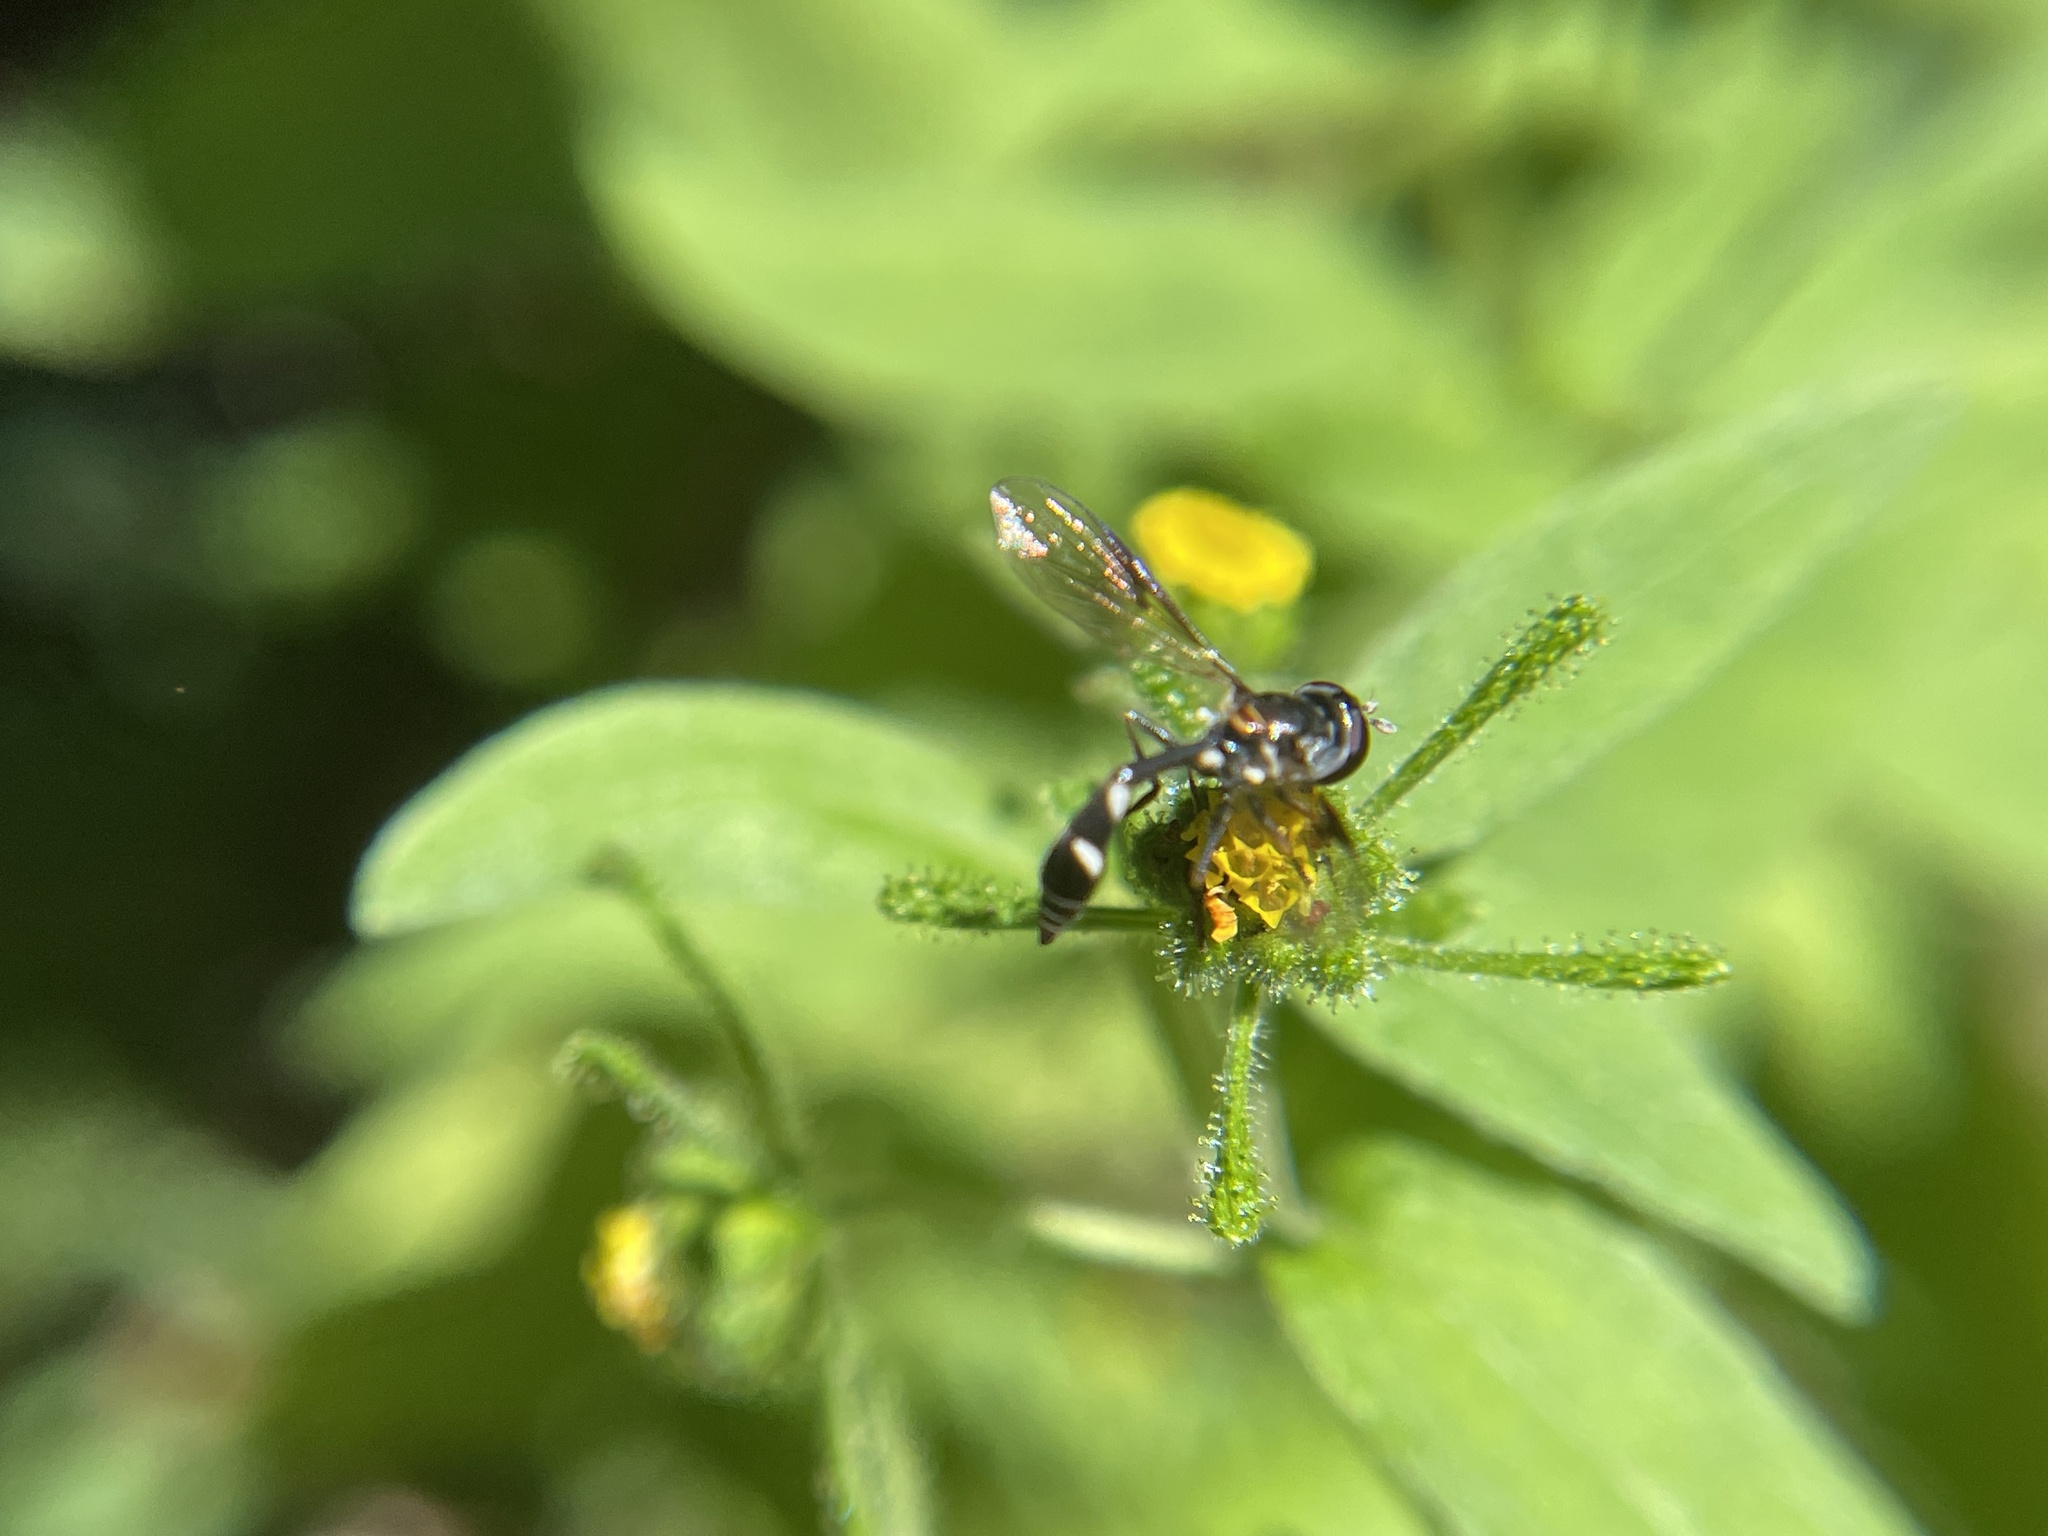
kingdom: Animalia
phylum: Arthropoda
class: Insecta
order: Diptera
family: Syrphidae
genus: Dioprosopa
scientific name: Dioprosopa clavatus
